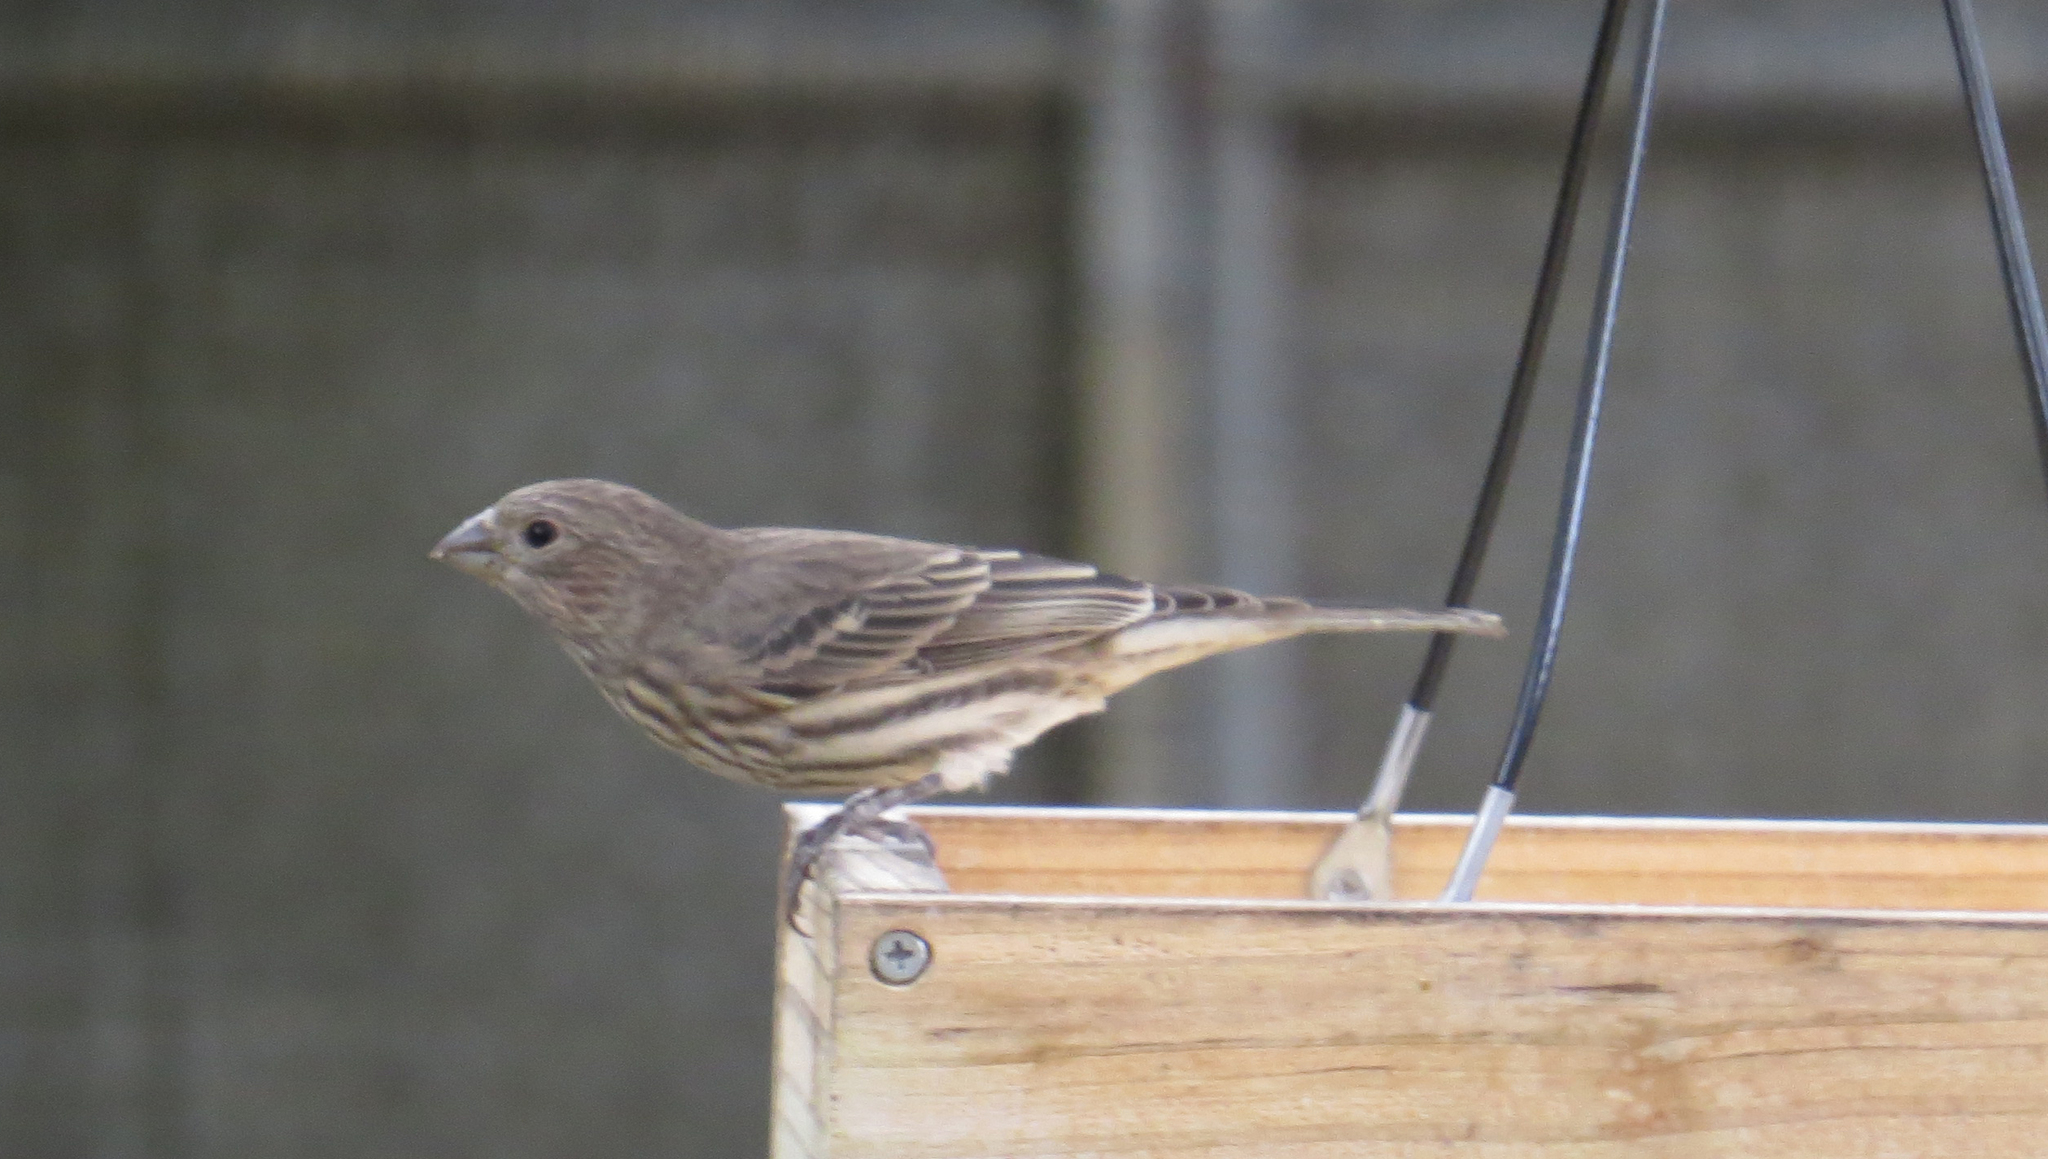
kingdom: Animalia
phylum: Chordata
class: Aves
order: Passeriformes
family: Fringillidae
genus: Haemorhous
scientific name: Haemorhous mexicanus
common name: House finch
